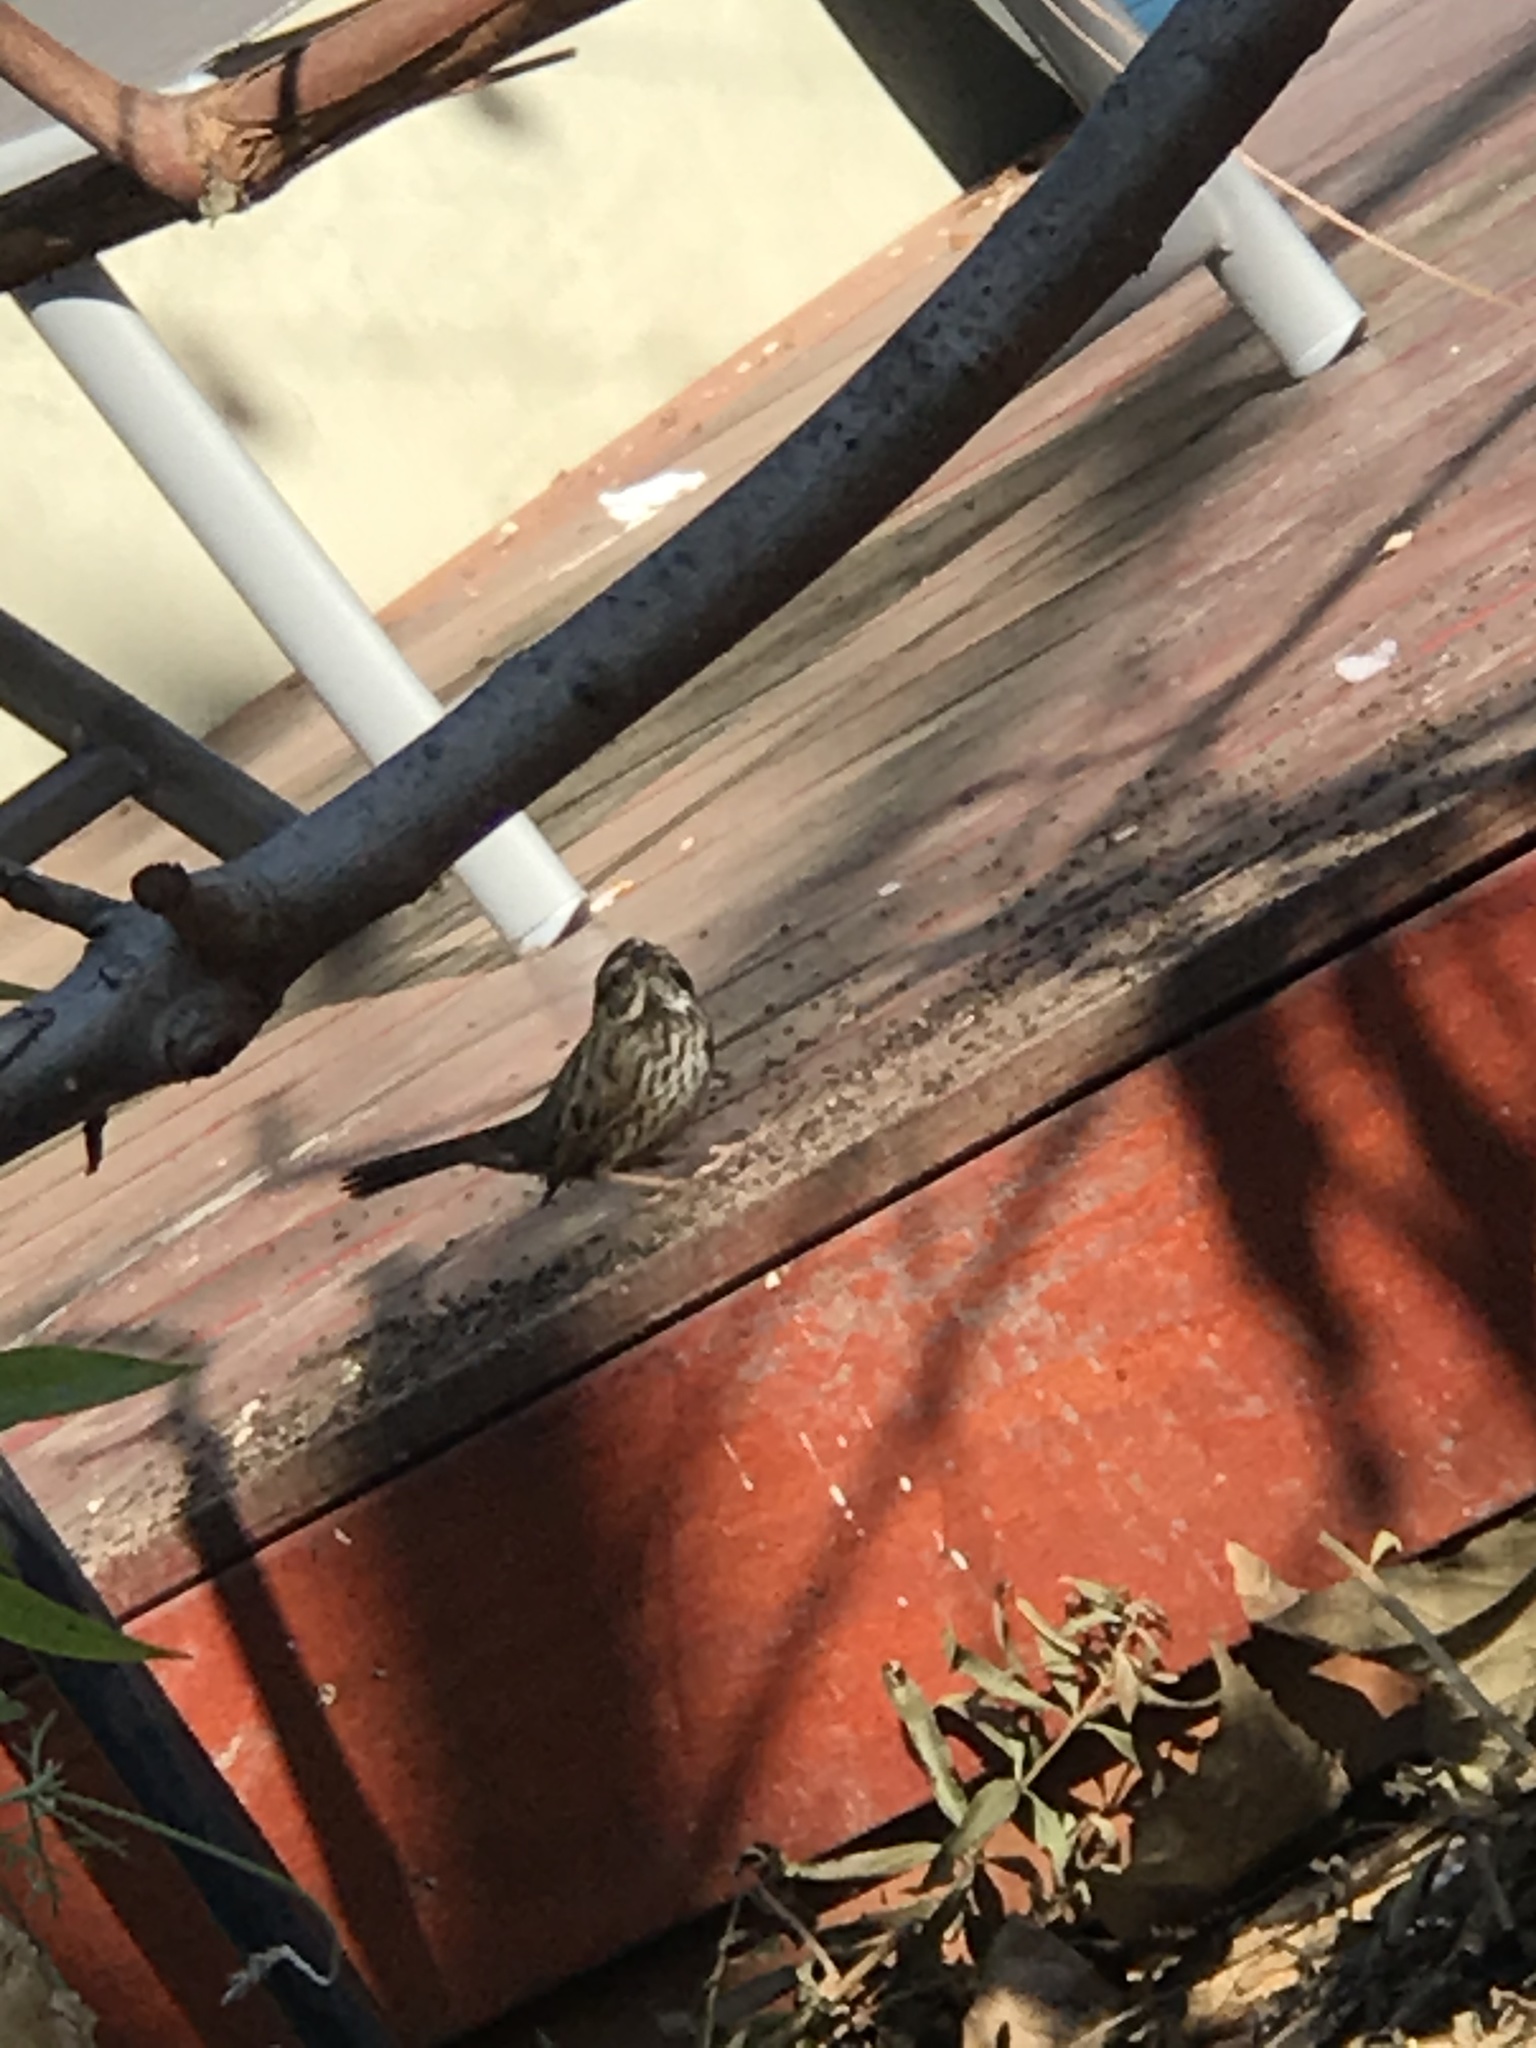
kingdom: Animalia
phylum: Chordata
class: Aves
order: Passeriformes
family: Passerellidae
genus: Melospiza
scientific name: Melospiza melodia
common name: Song sparrow
